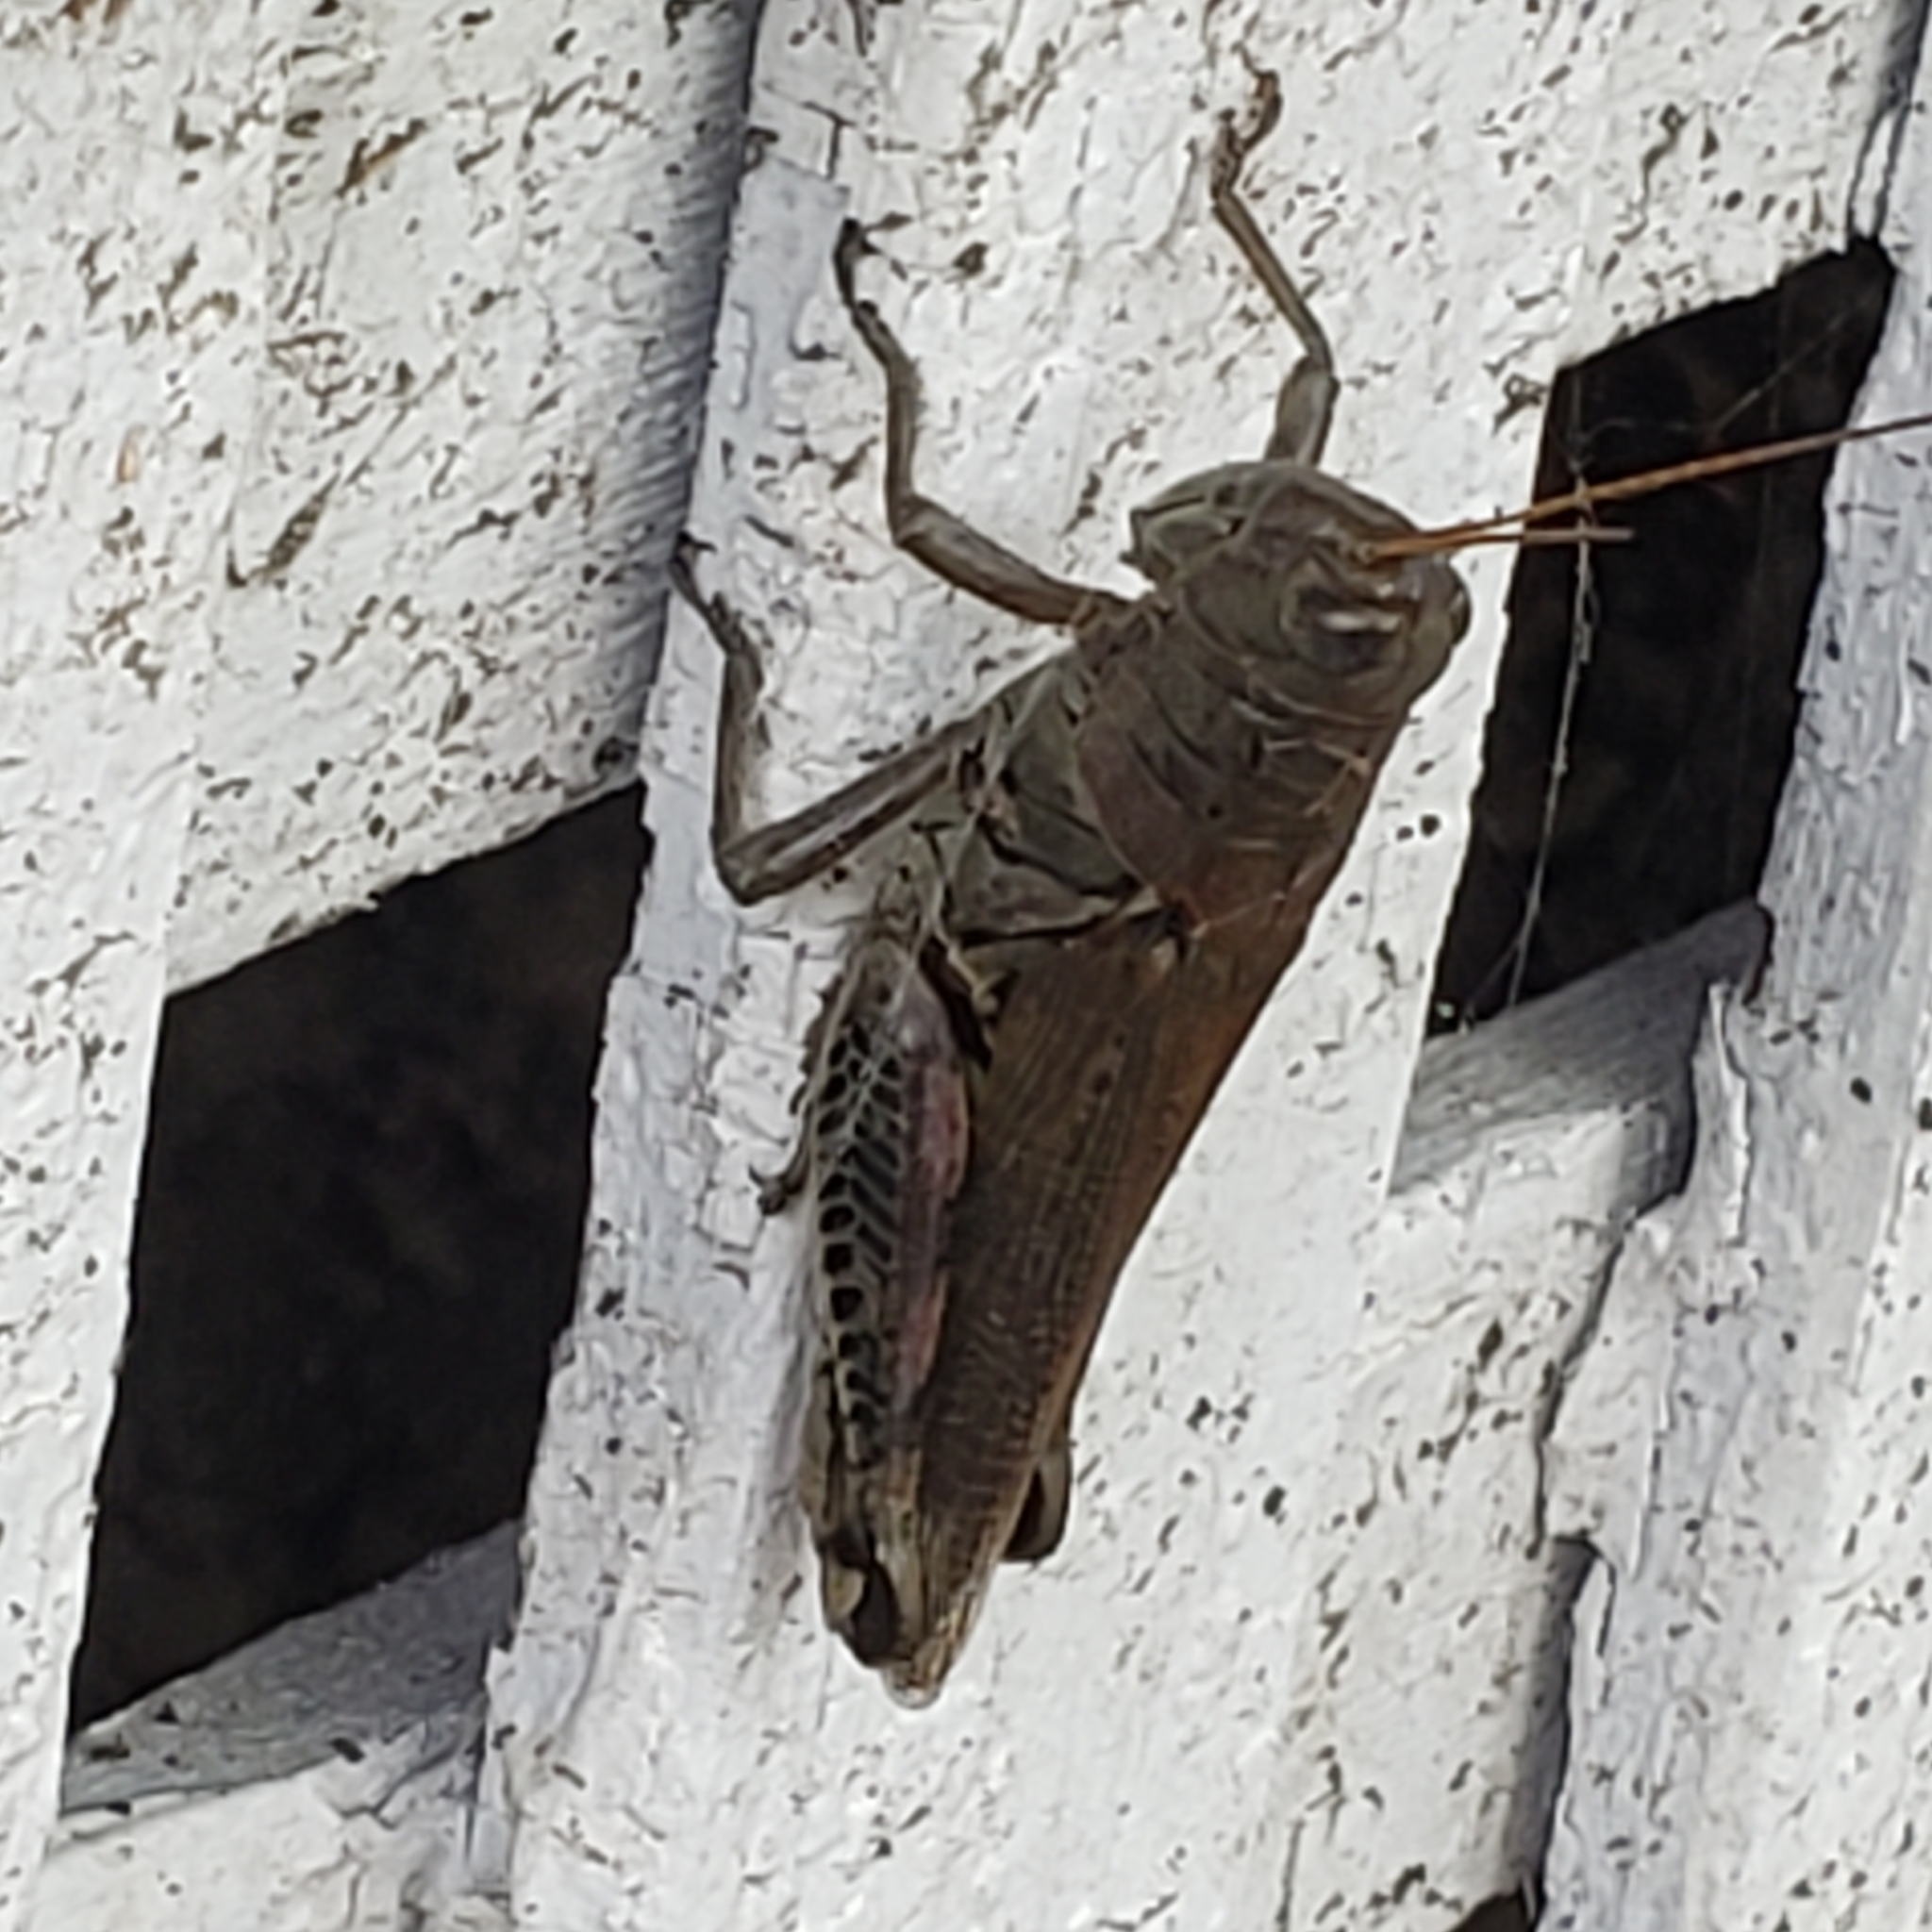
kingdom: Animalia
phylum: Arthropoda
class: Insecta
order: Orthoptera
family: Acrididae
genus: Melanoplus
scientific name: Melanoplus differentialis
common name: Differential grasshopper
